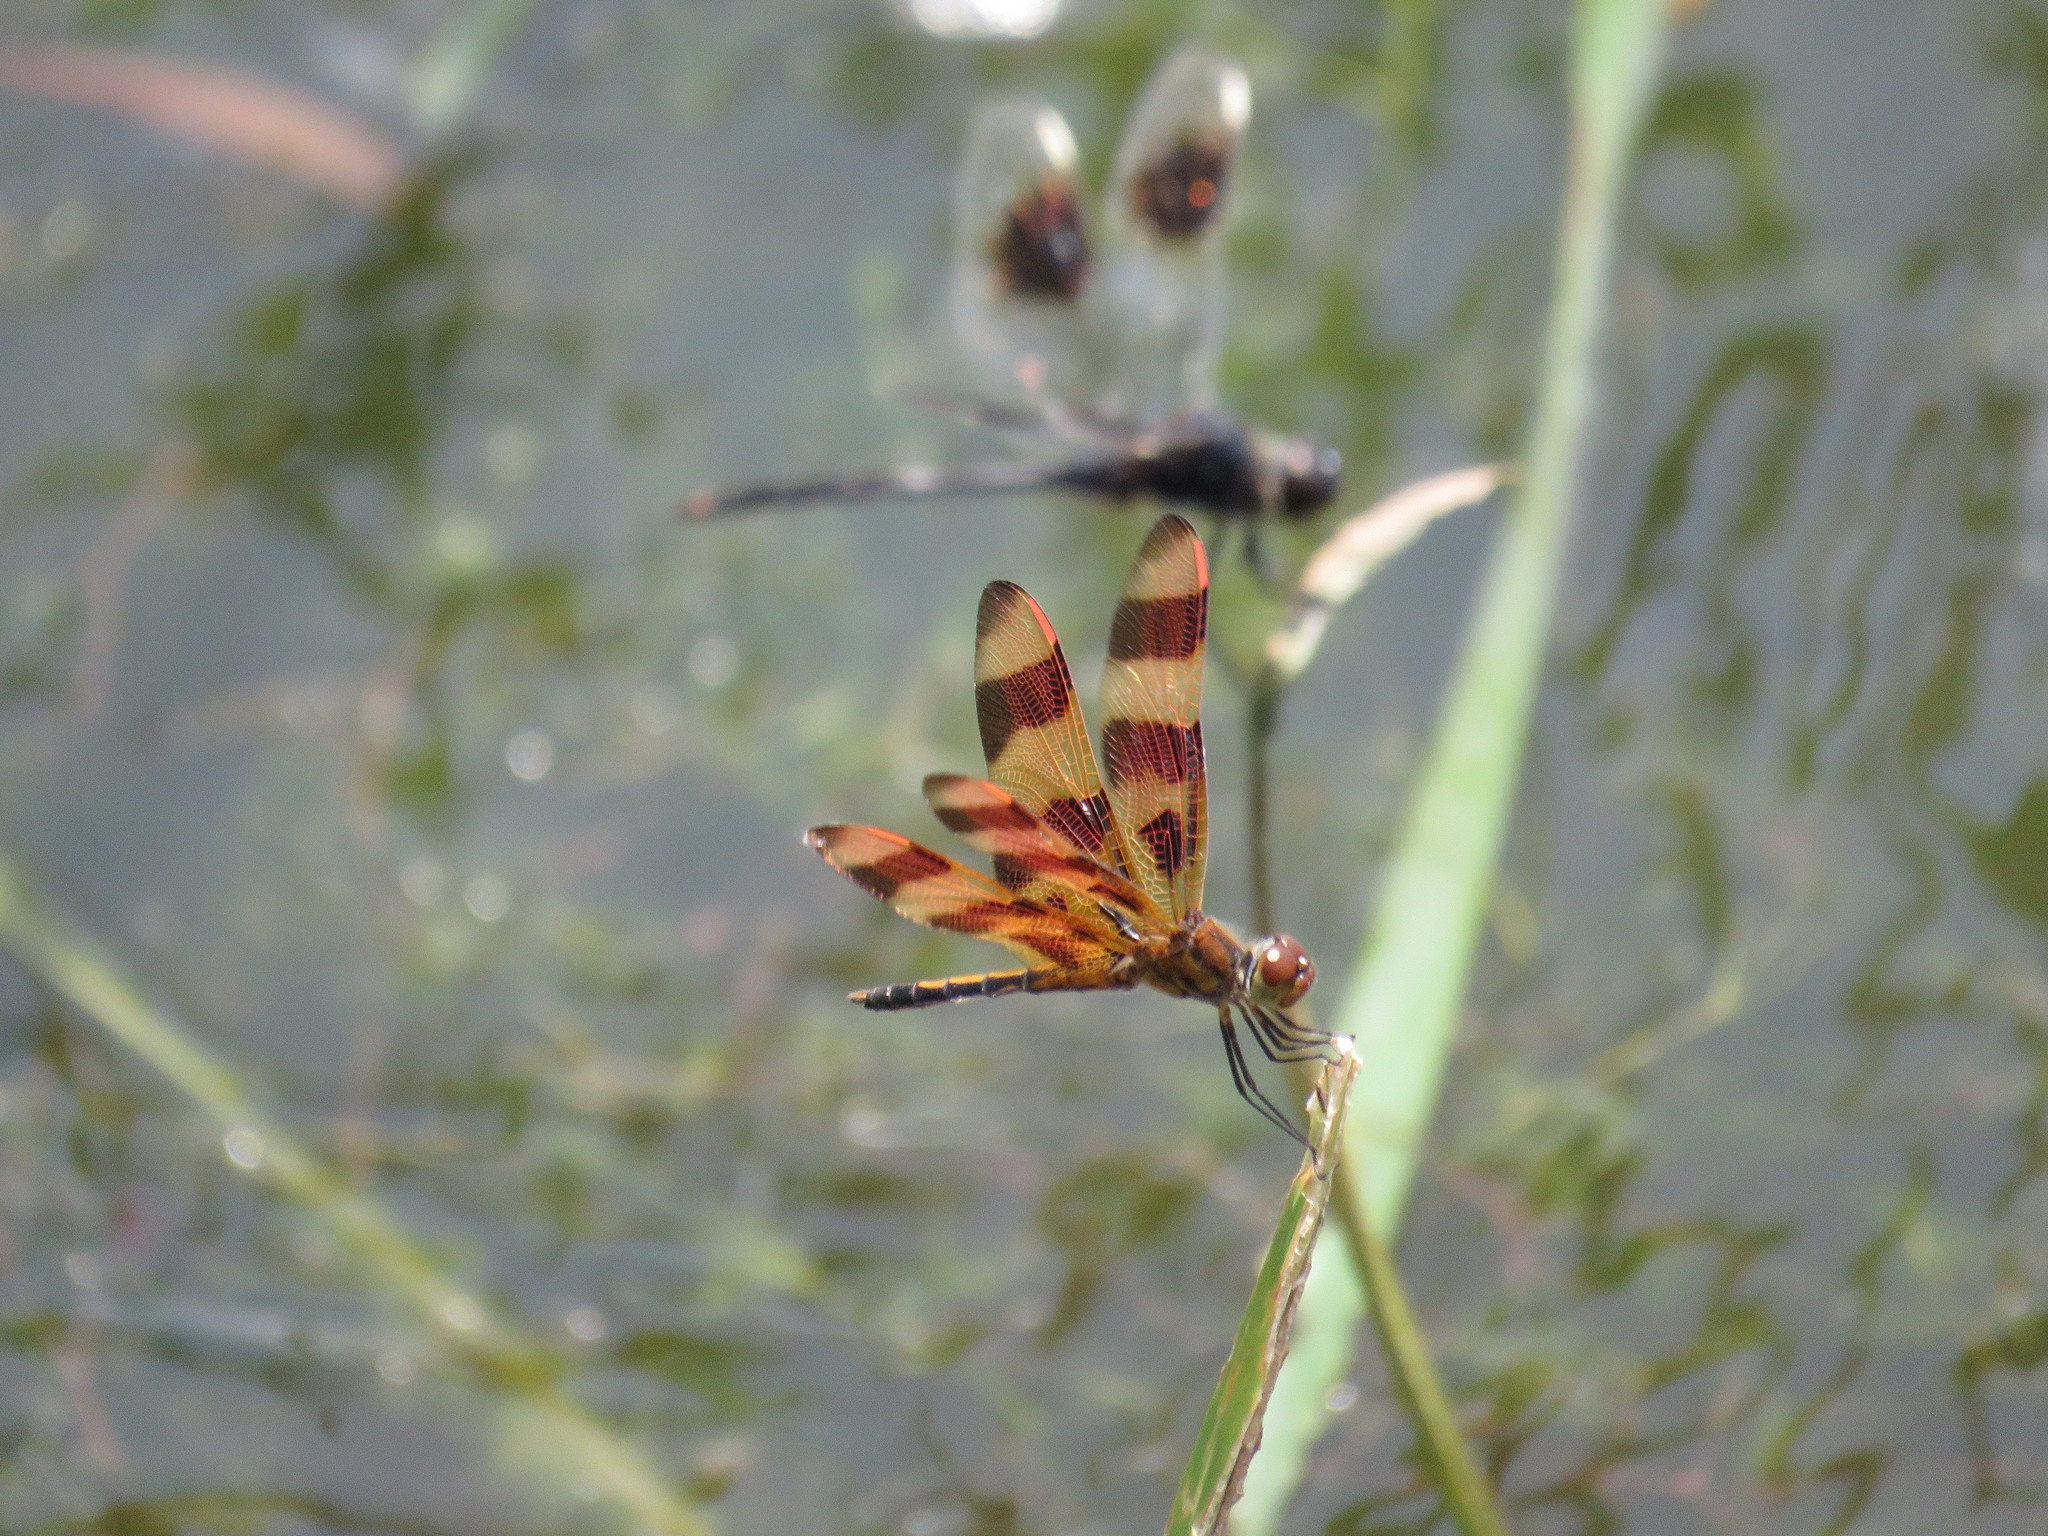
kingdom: Animalia
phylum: Arthropoda
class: Insecta
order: Odonata
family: Libellulidae
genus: Celithemis
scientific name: Celithemis eponina
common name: Halloween pennant
